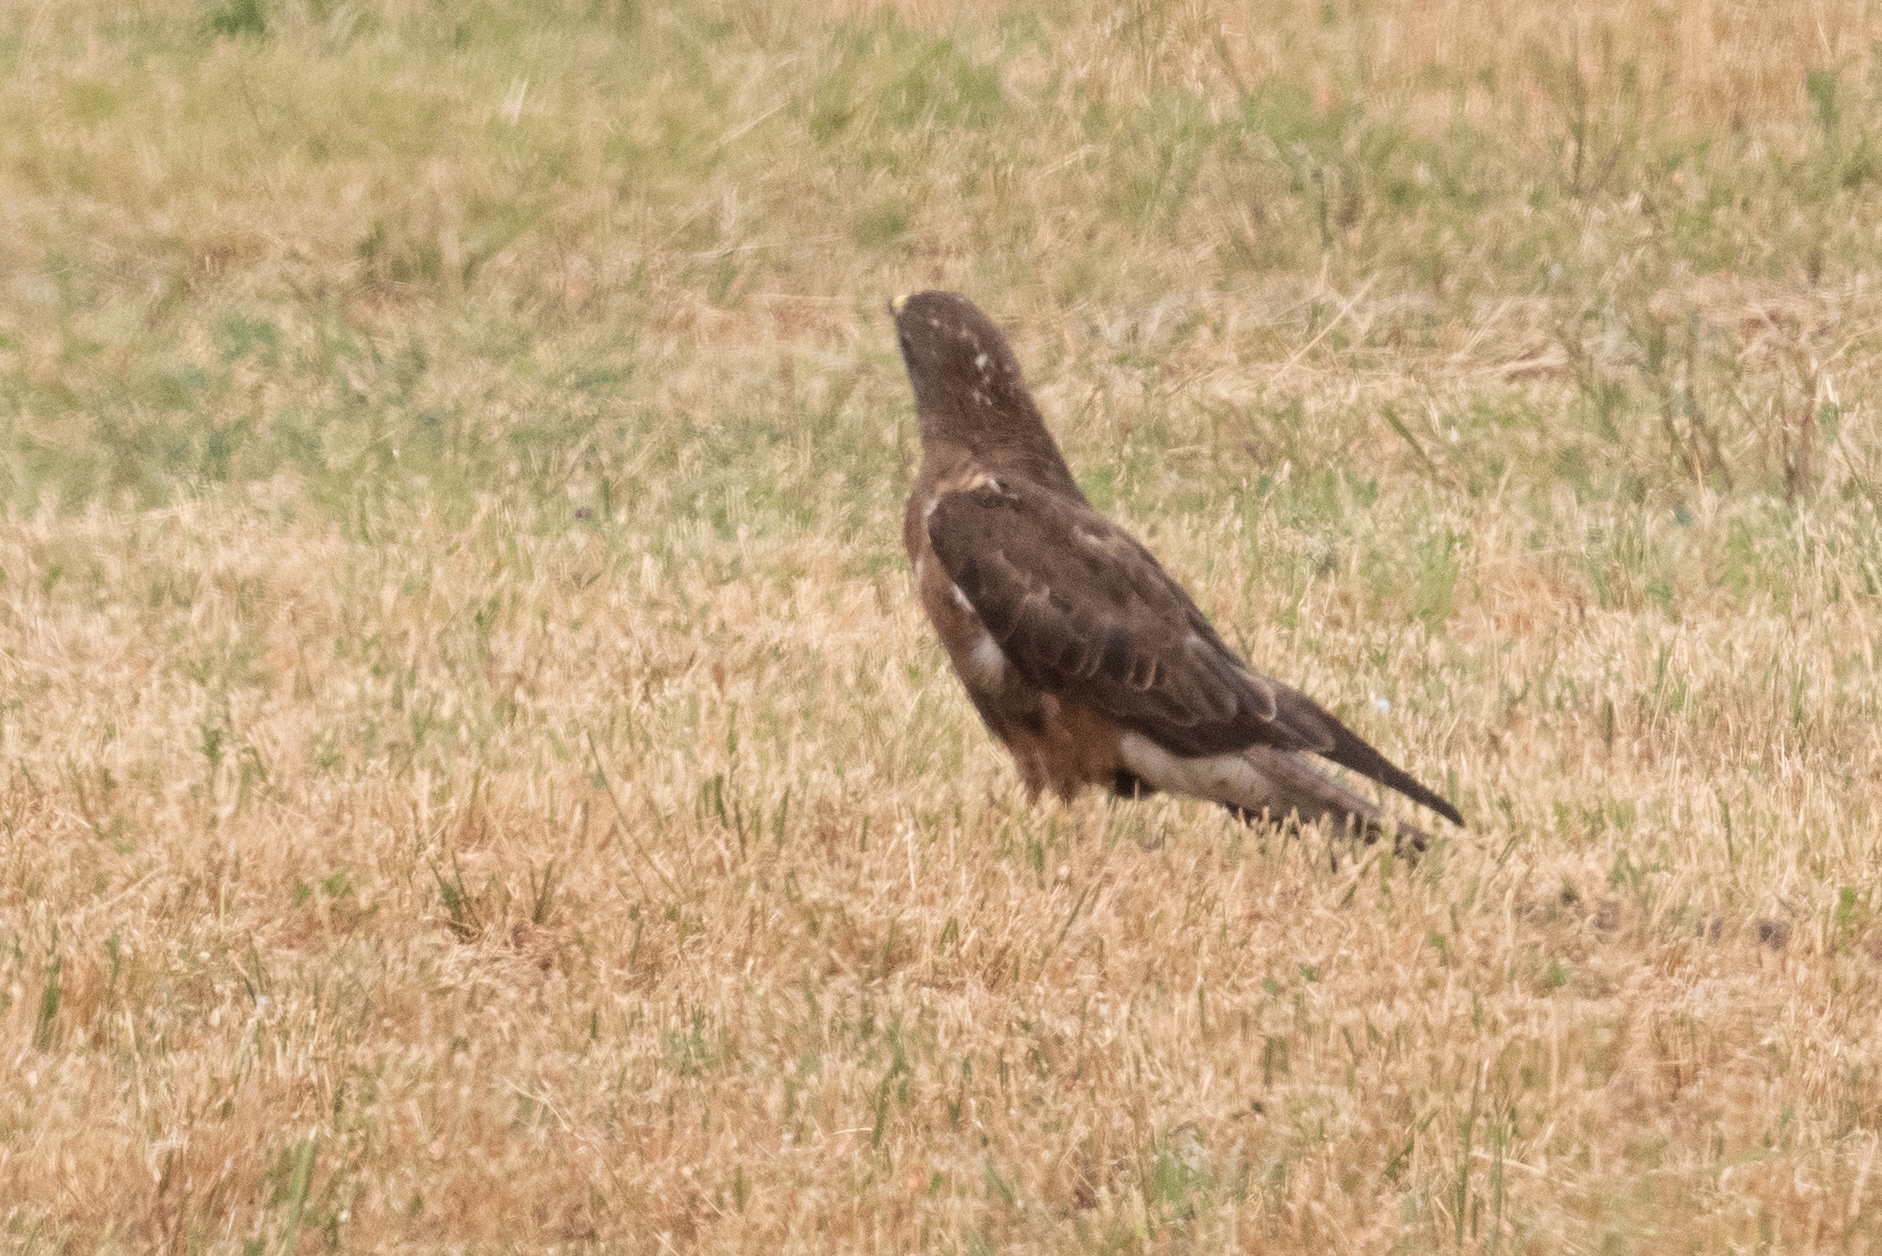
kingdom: Animalia
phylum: Chordata
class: Aves
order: Accipitriformes
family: Accipitridae
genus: Buteo
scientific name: Buteo swainsoni
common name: Swainson's hawk
